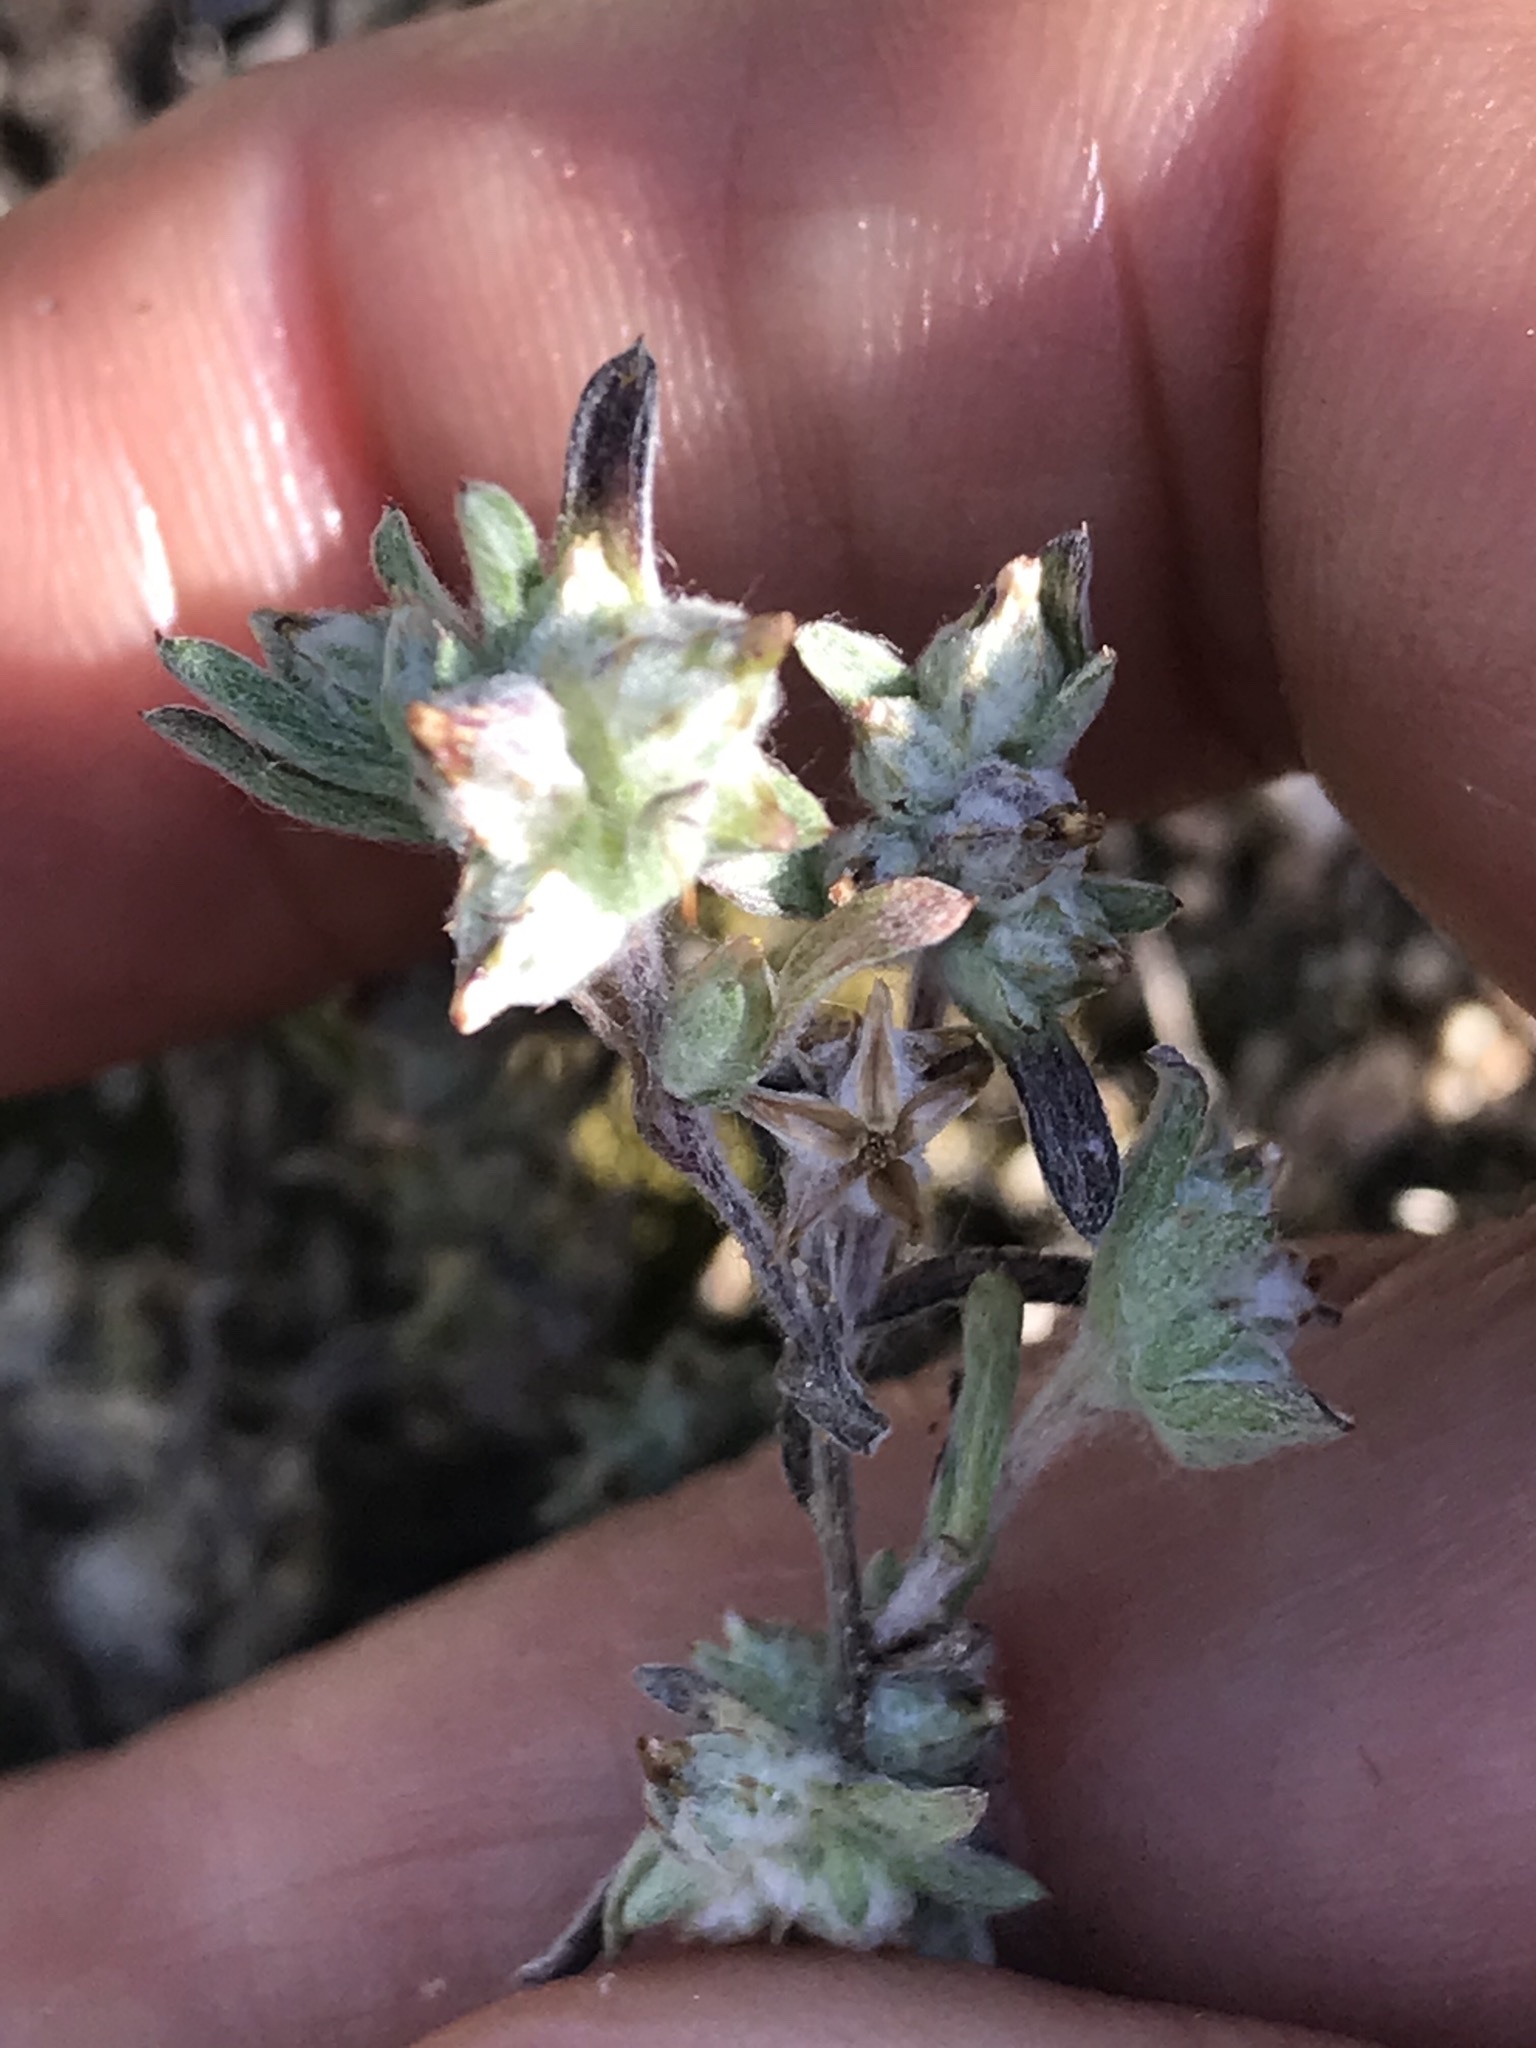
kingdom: Plantae
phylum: Tracheophyta
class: Magnoliopsida
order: Asterales
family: Asteraceae
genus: Logfia
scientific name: Logfia californica
